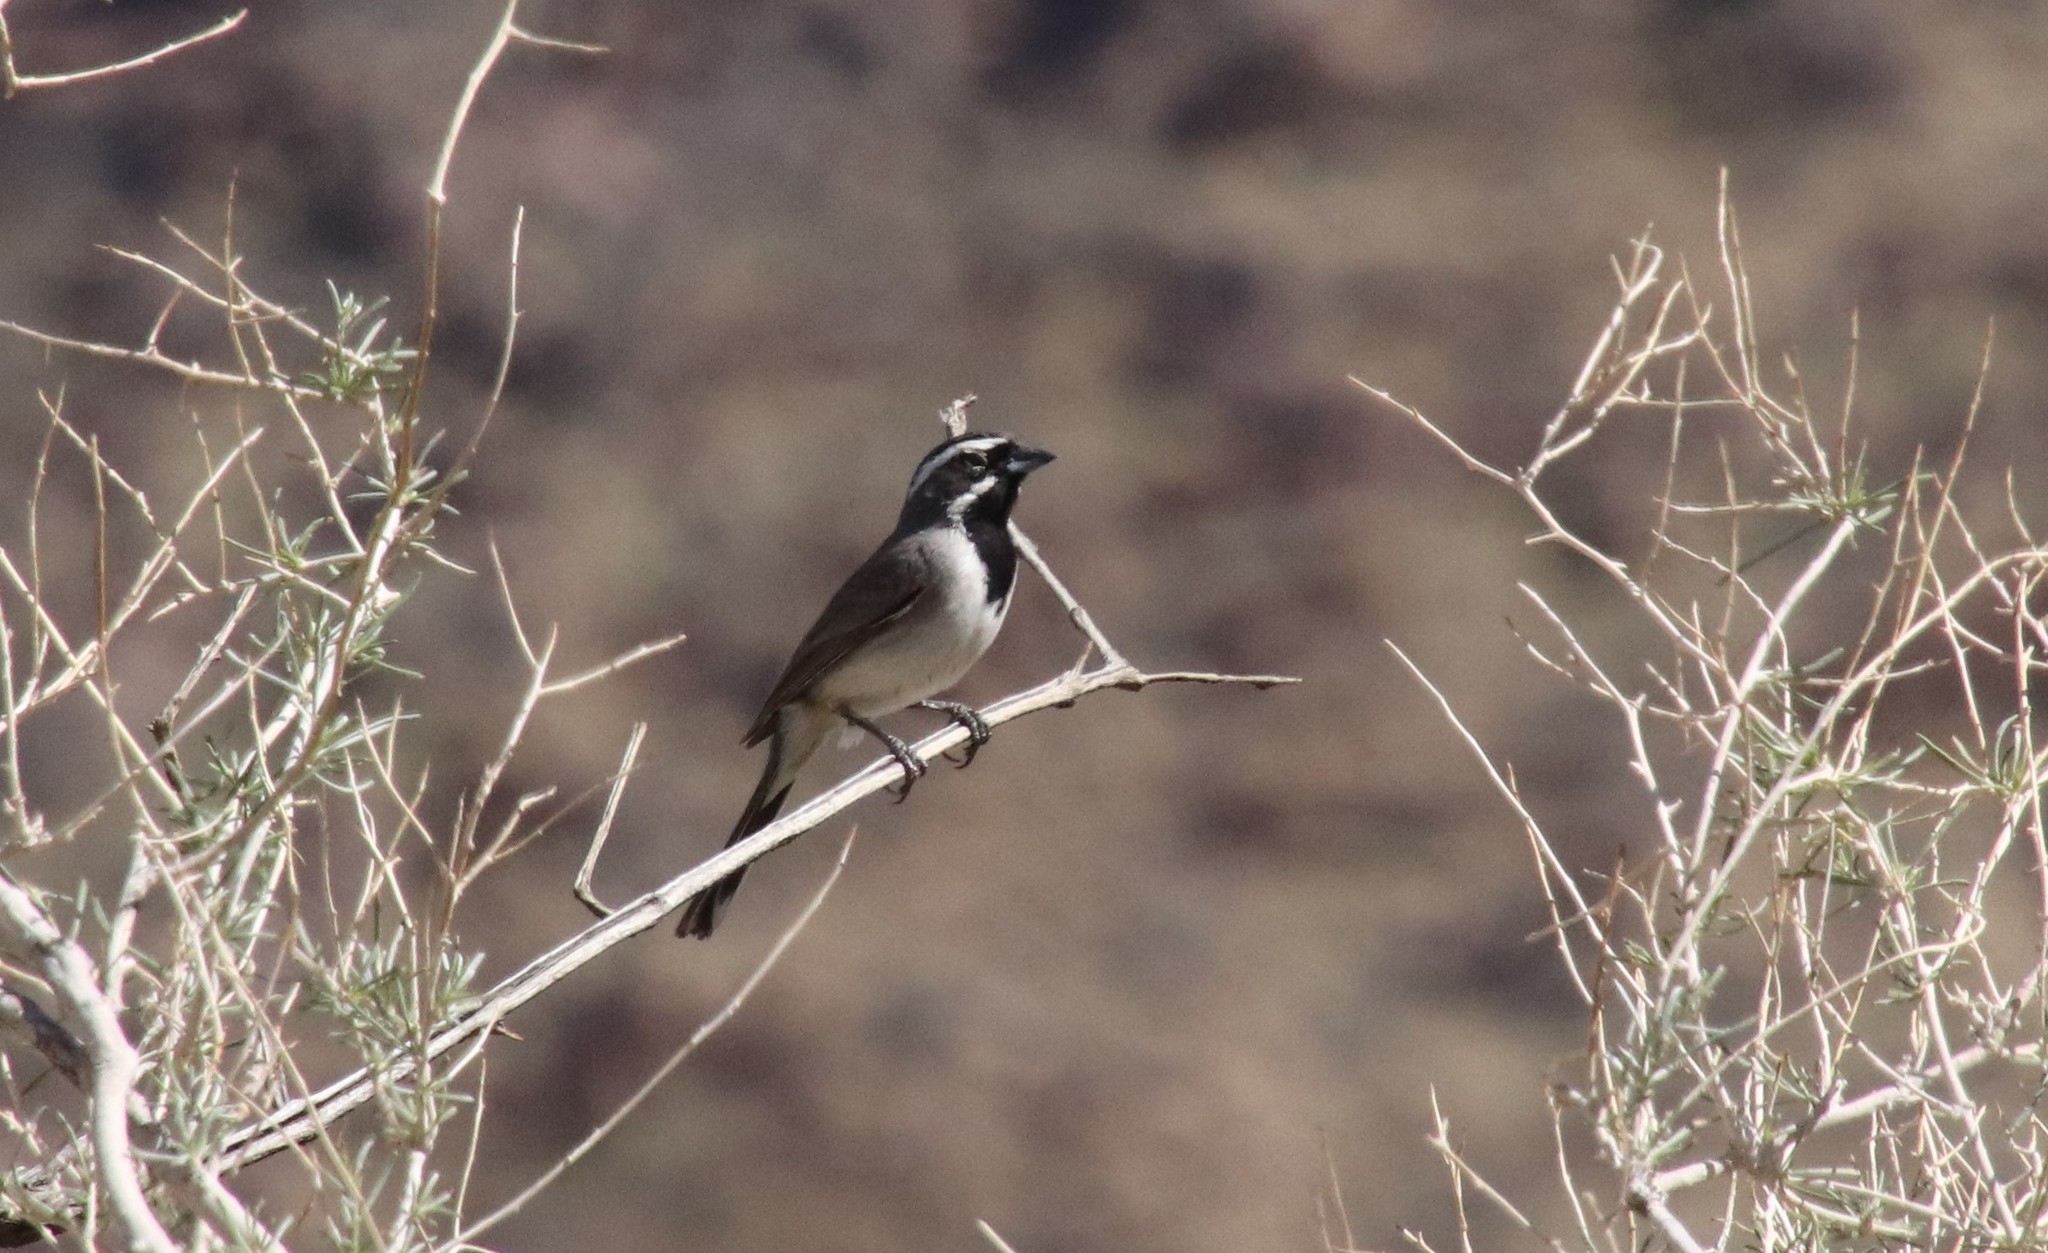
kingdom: Animalia
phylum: Chordata
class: Aves
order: Passeriformes
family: Passerellidae
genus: Amphispiza
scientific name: Amphispiza bilineata
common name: Black-throated sparrow
